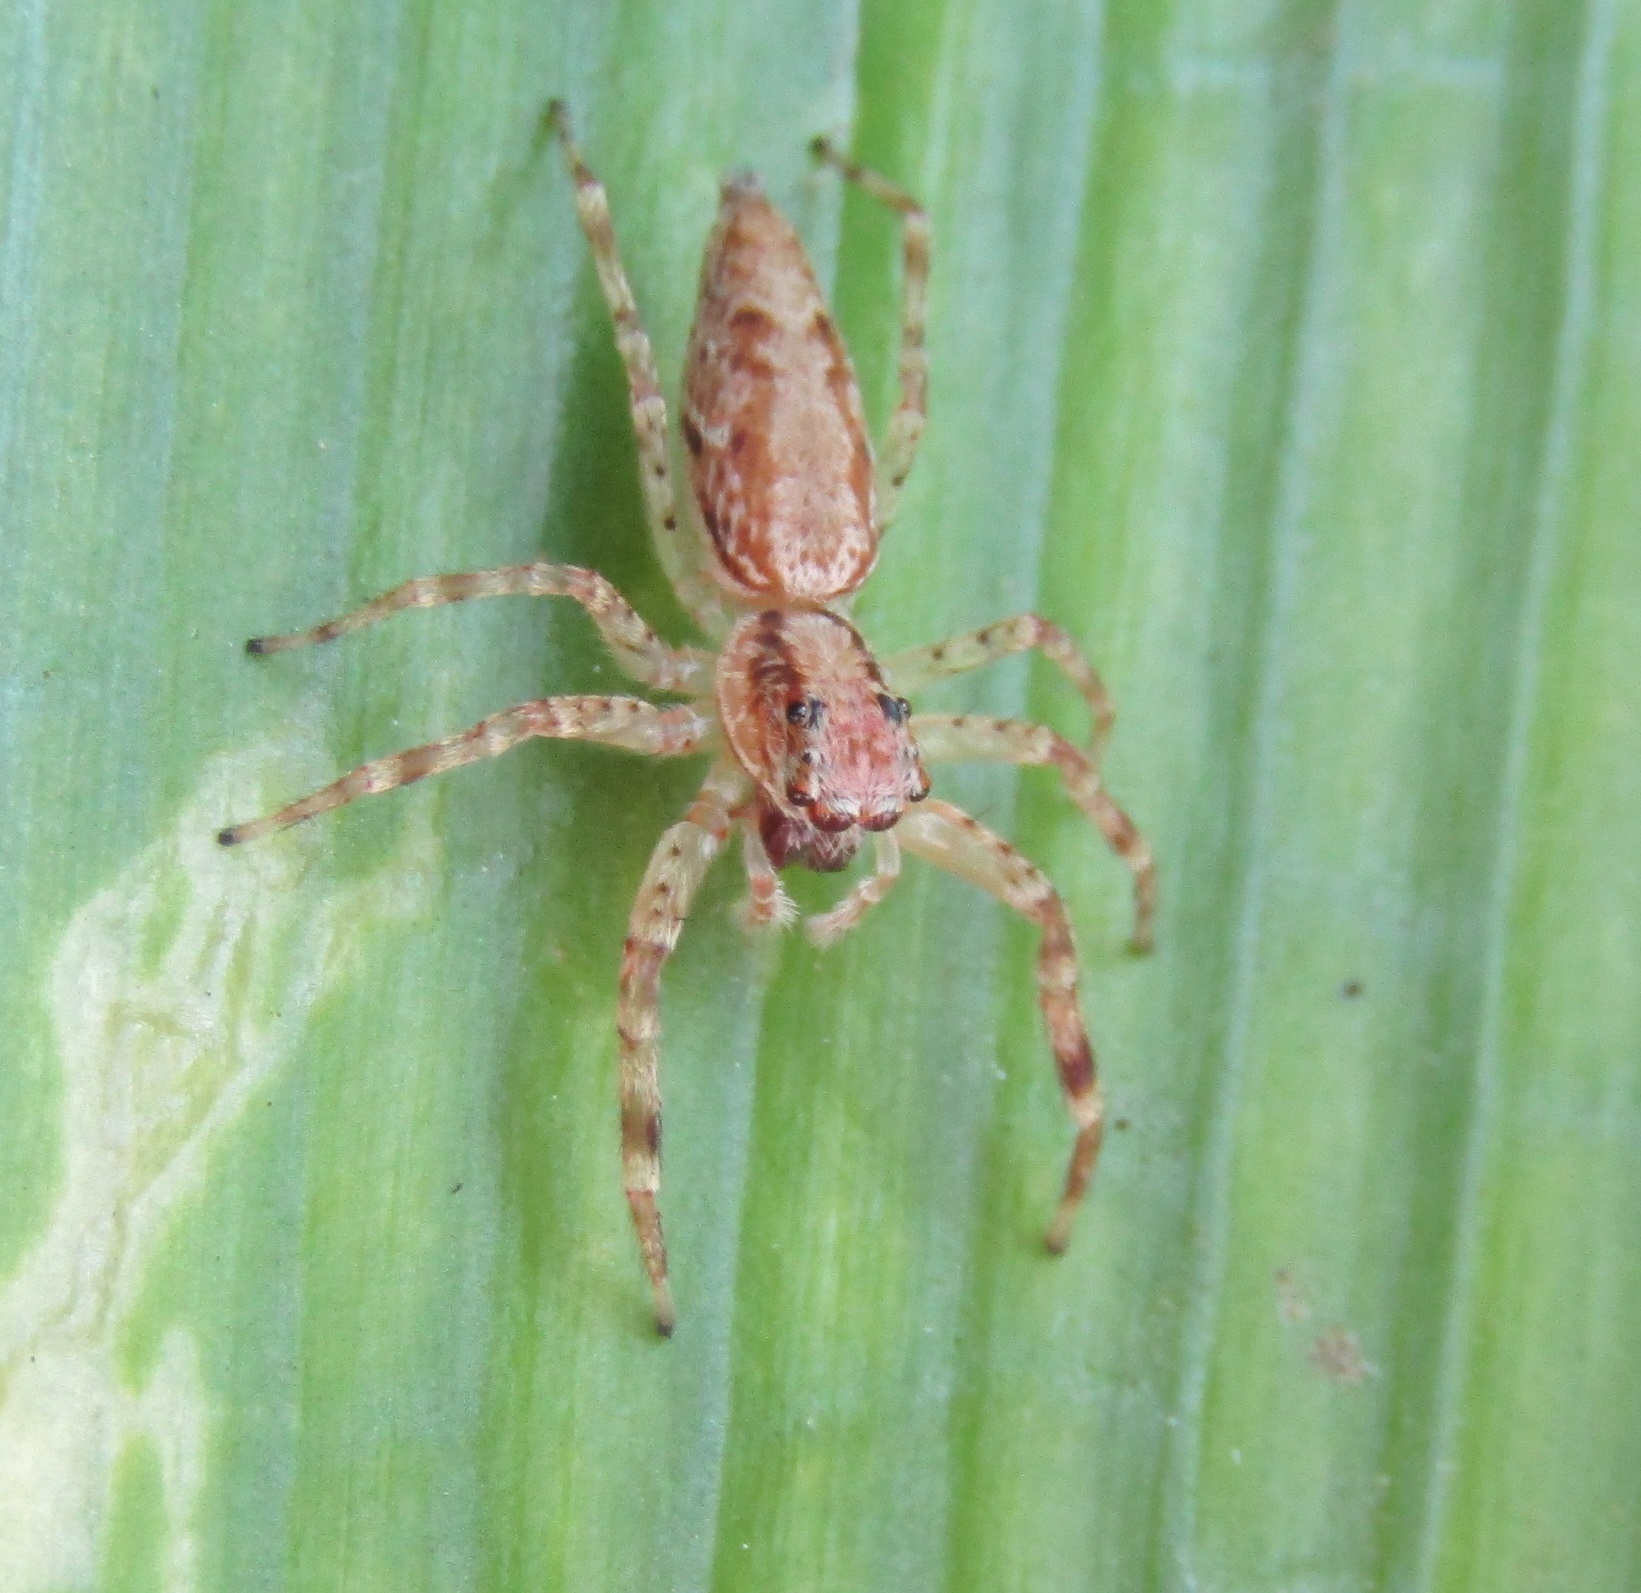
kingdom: Animalia
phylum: Arthropoda
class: Arachnida
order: Araneae
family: Salticidae
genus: Helpis
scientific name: Helpis minitabunda
